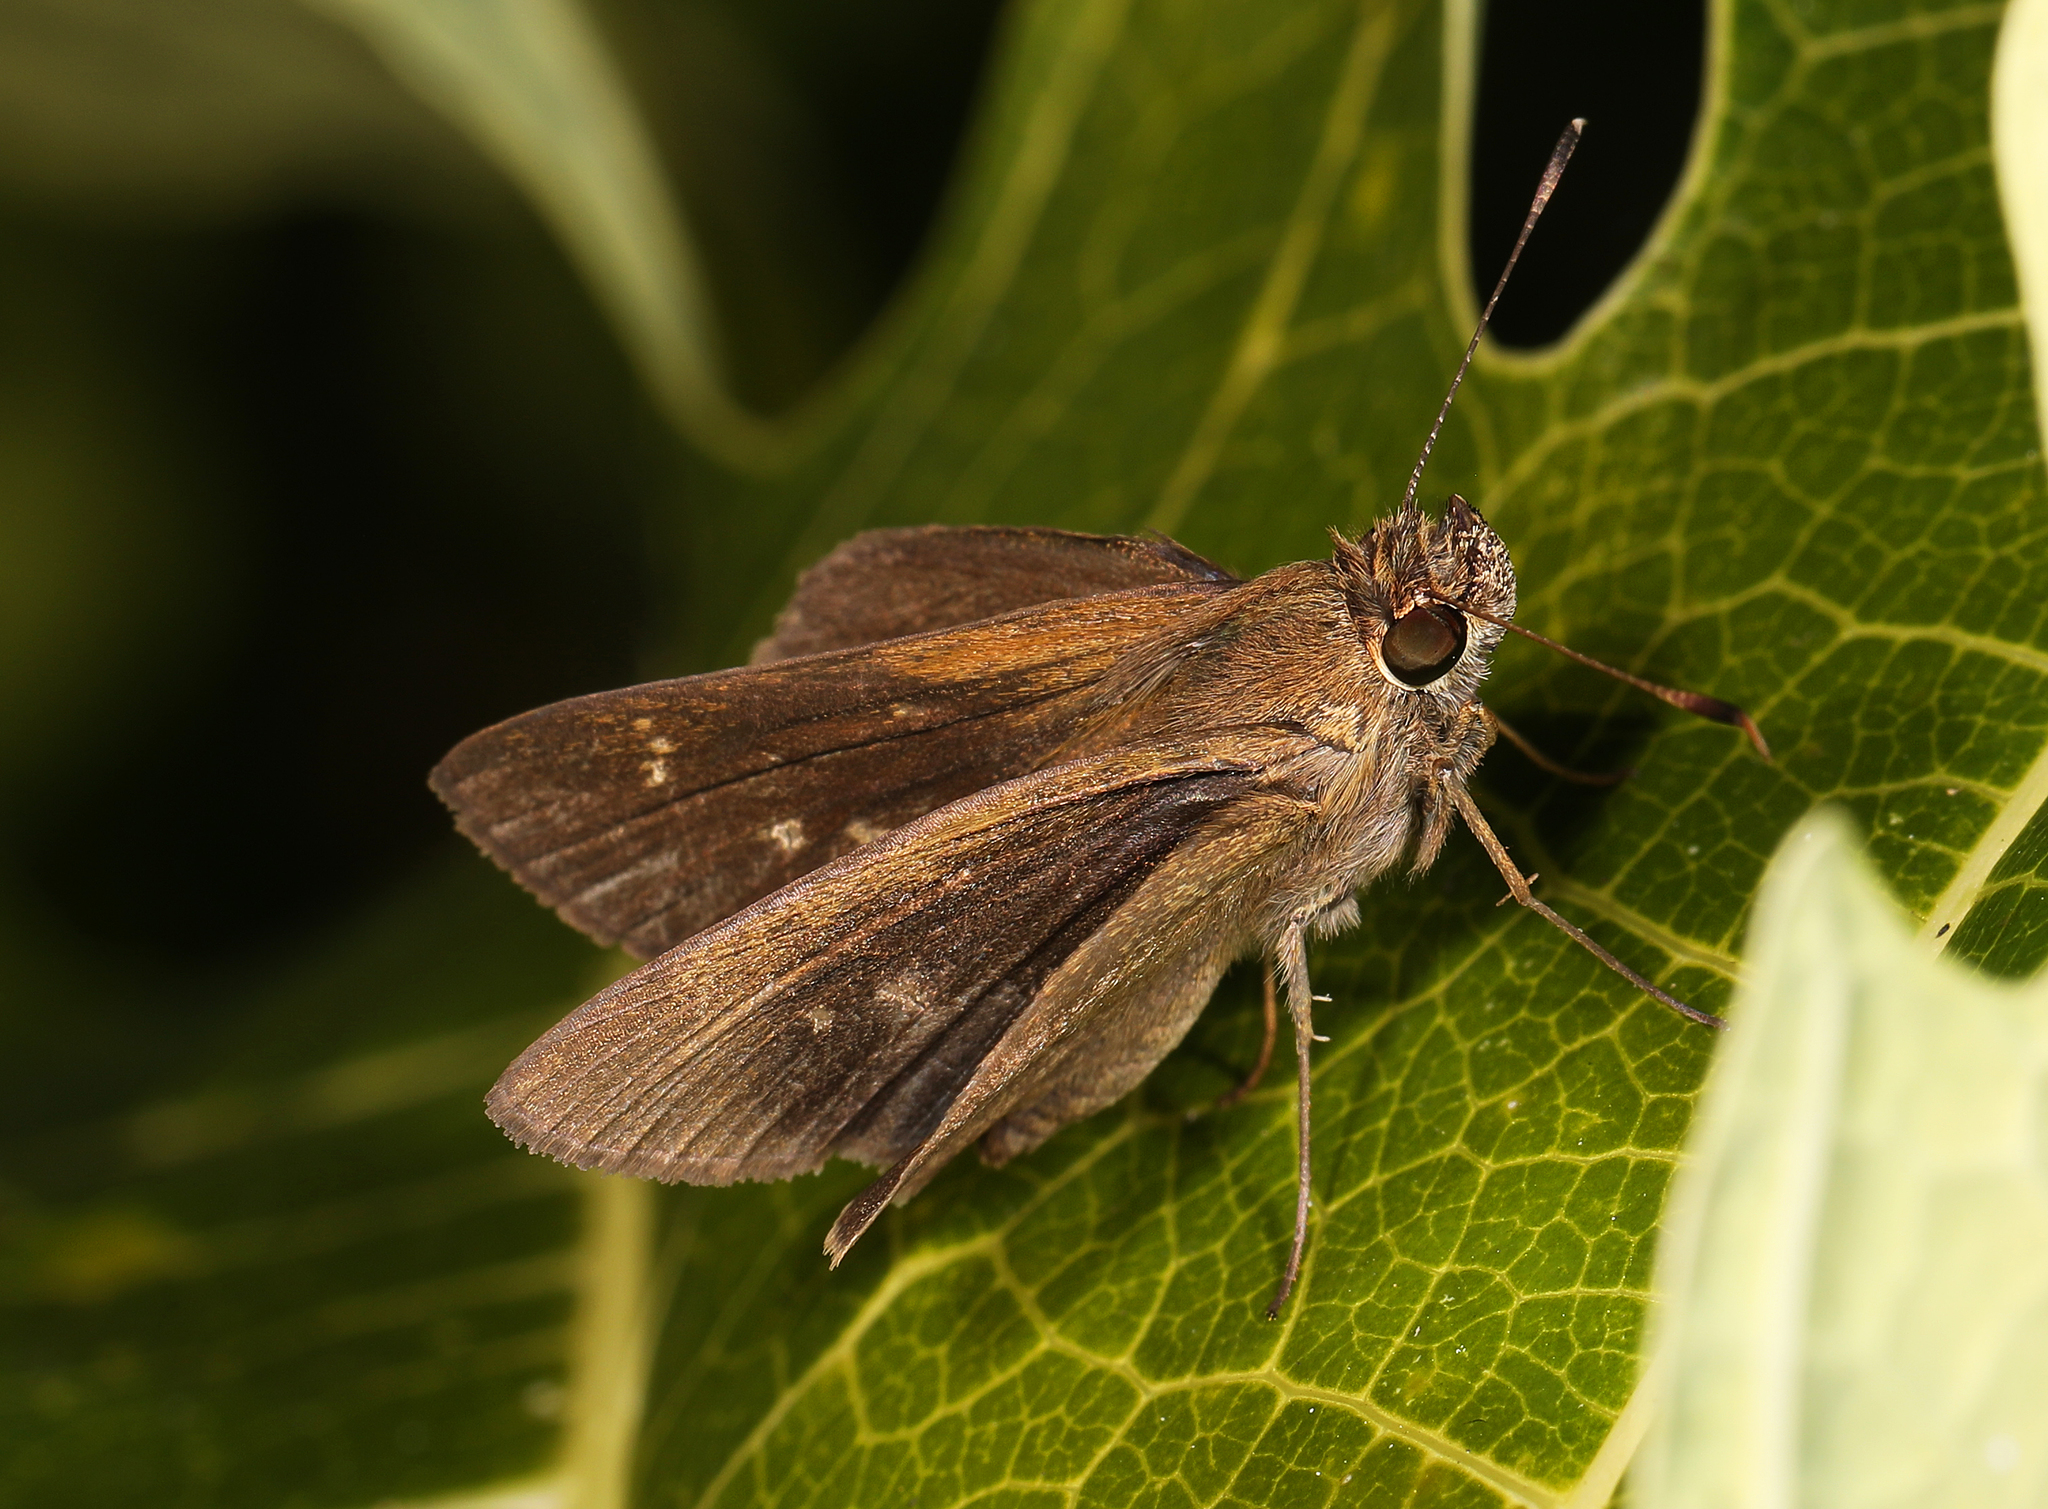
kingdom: Animalia
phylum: Arthropoda
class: Insecta
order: Lepidoptera
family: Hesperiidae
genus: Cymaenes
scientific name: Cymaenes tripunctus
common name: Dingy dotted skipper
